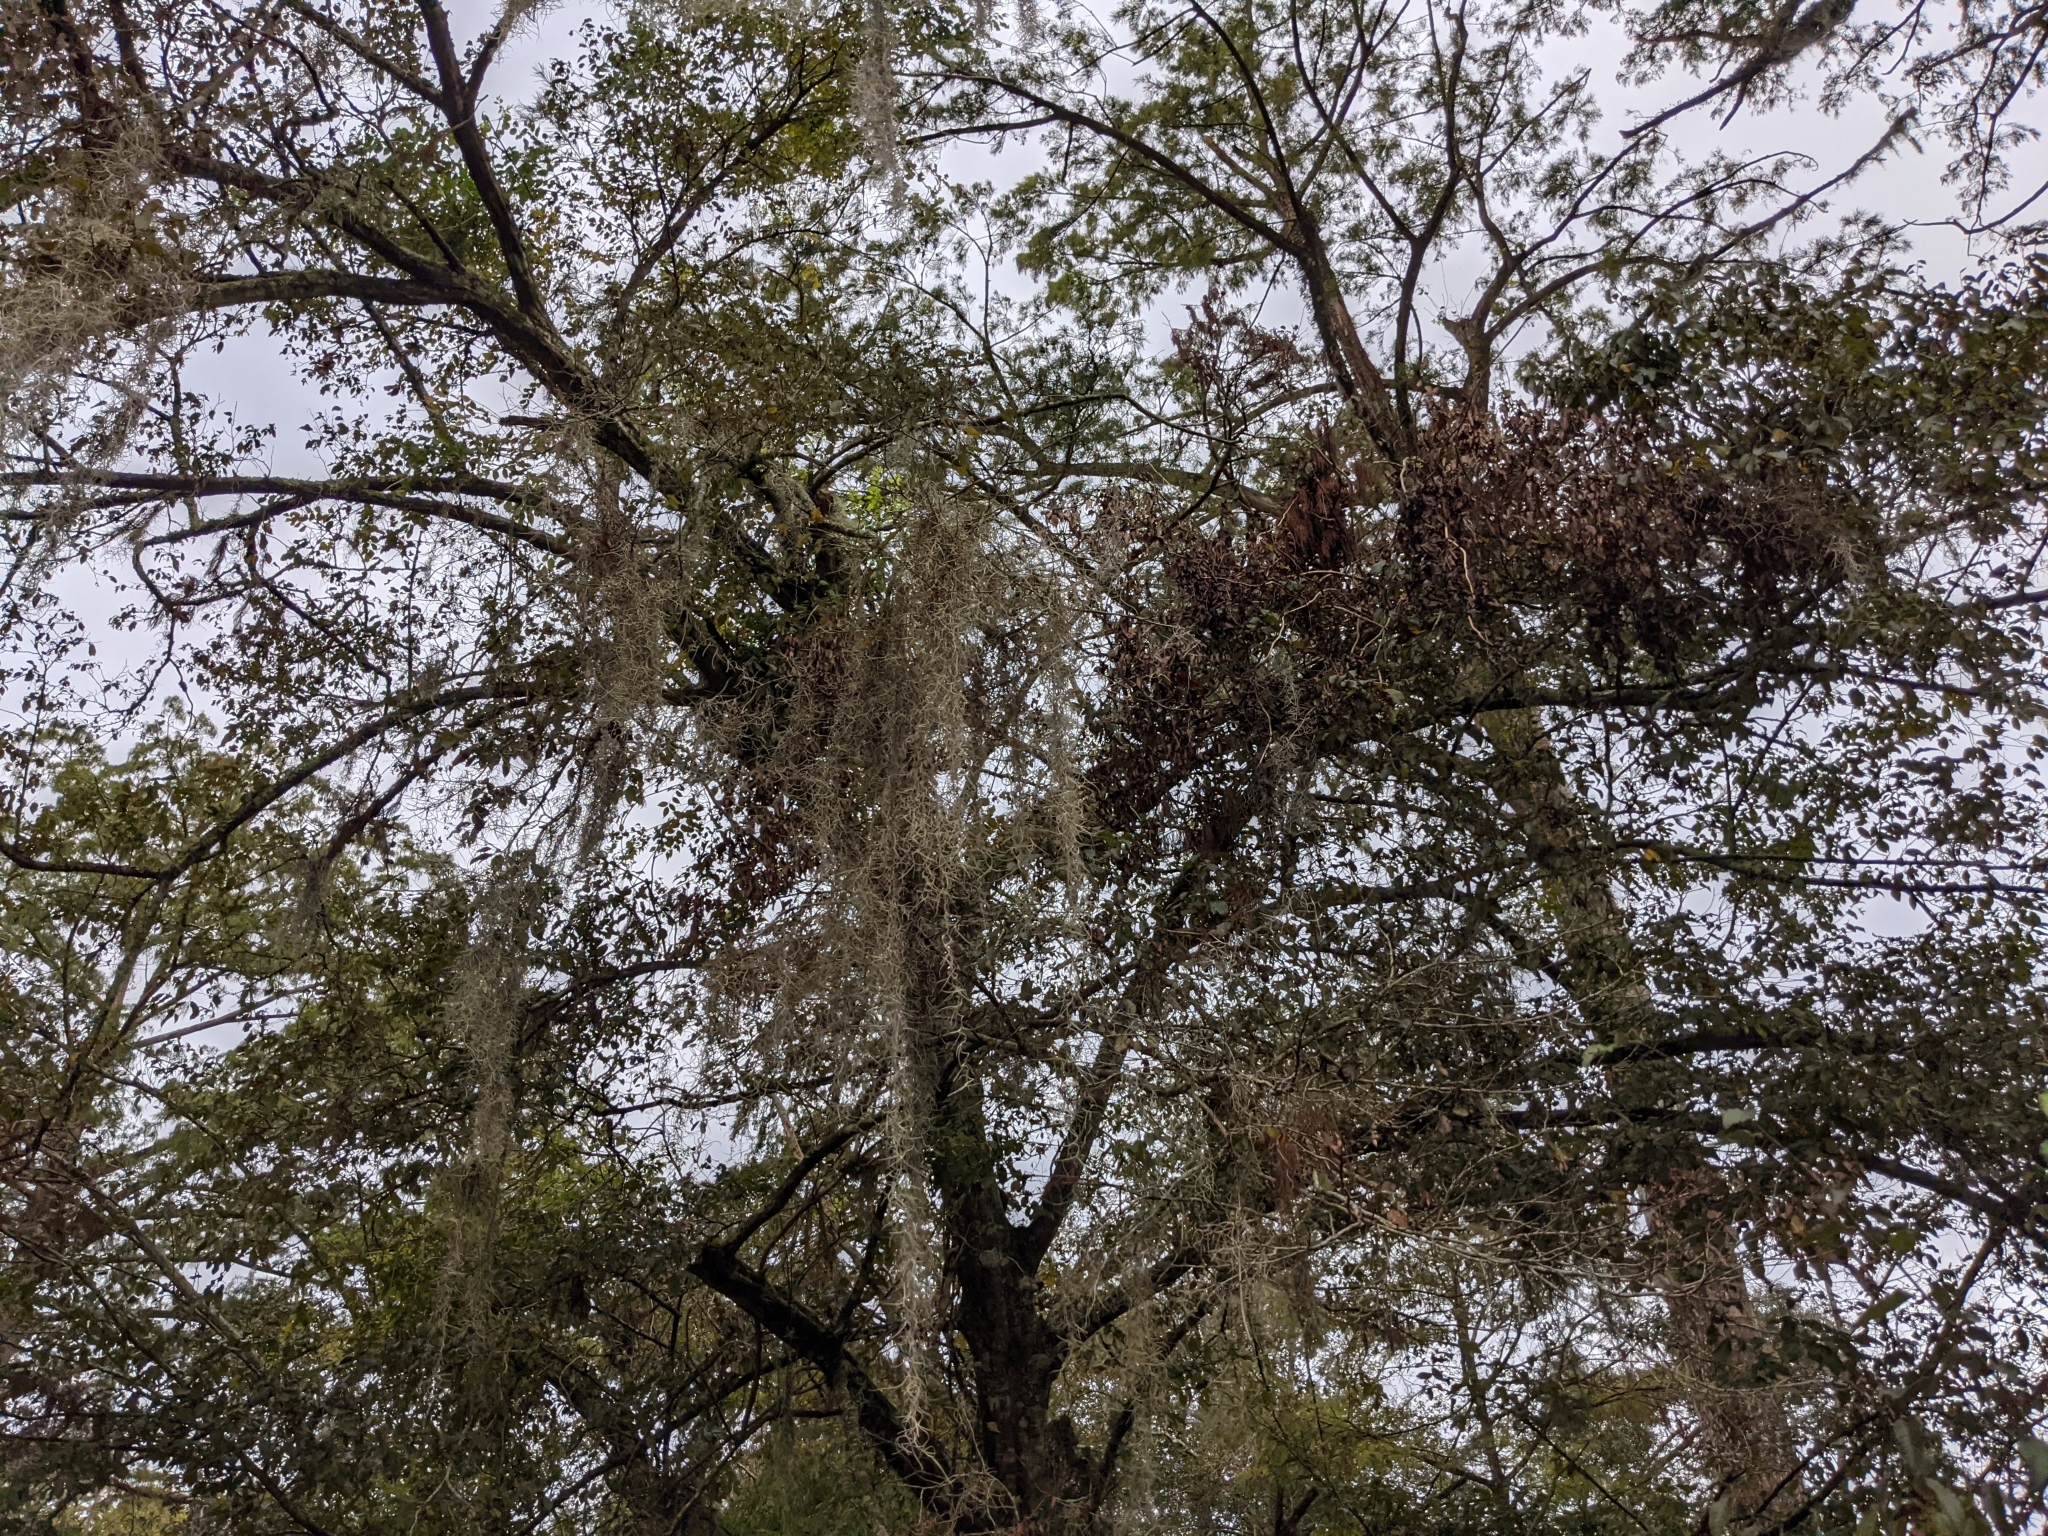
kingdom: Plantae
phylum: Tracheophyta
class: Liliopsida
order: Poales
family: Bromeliaceae
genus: Tillandsia
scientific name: Tillandsia usneoides
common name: Spanish moss
